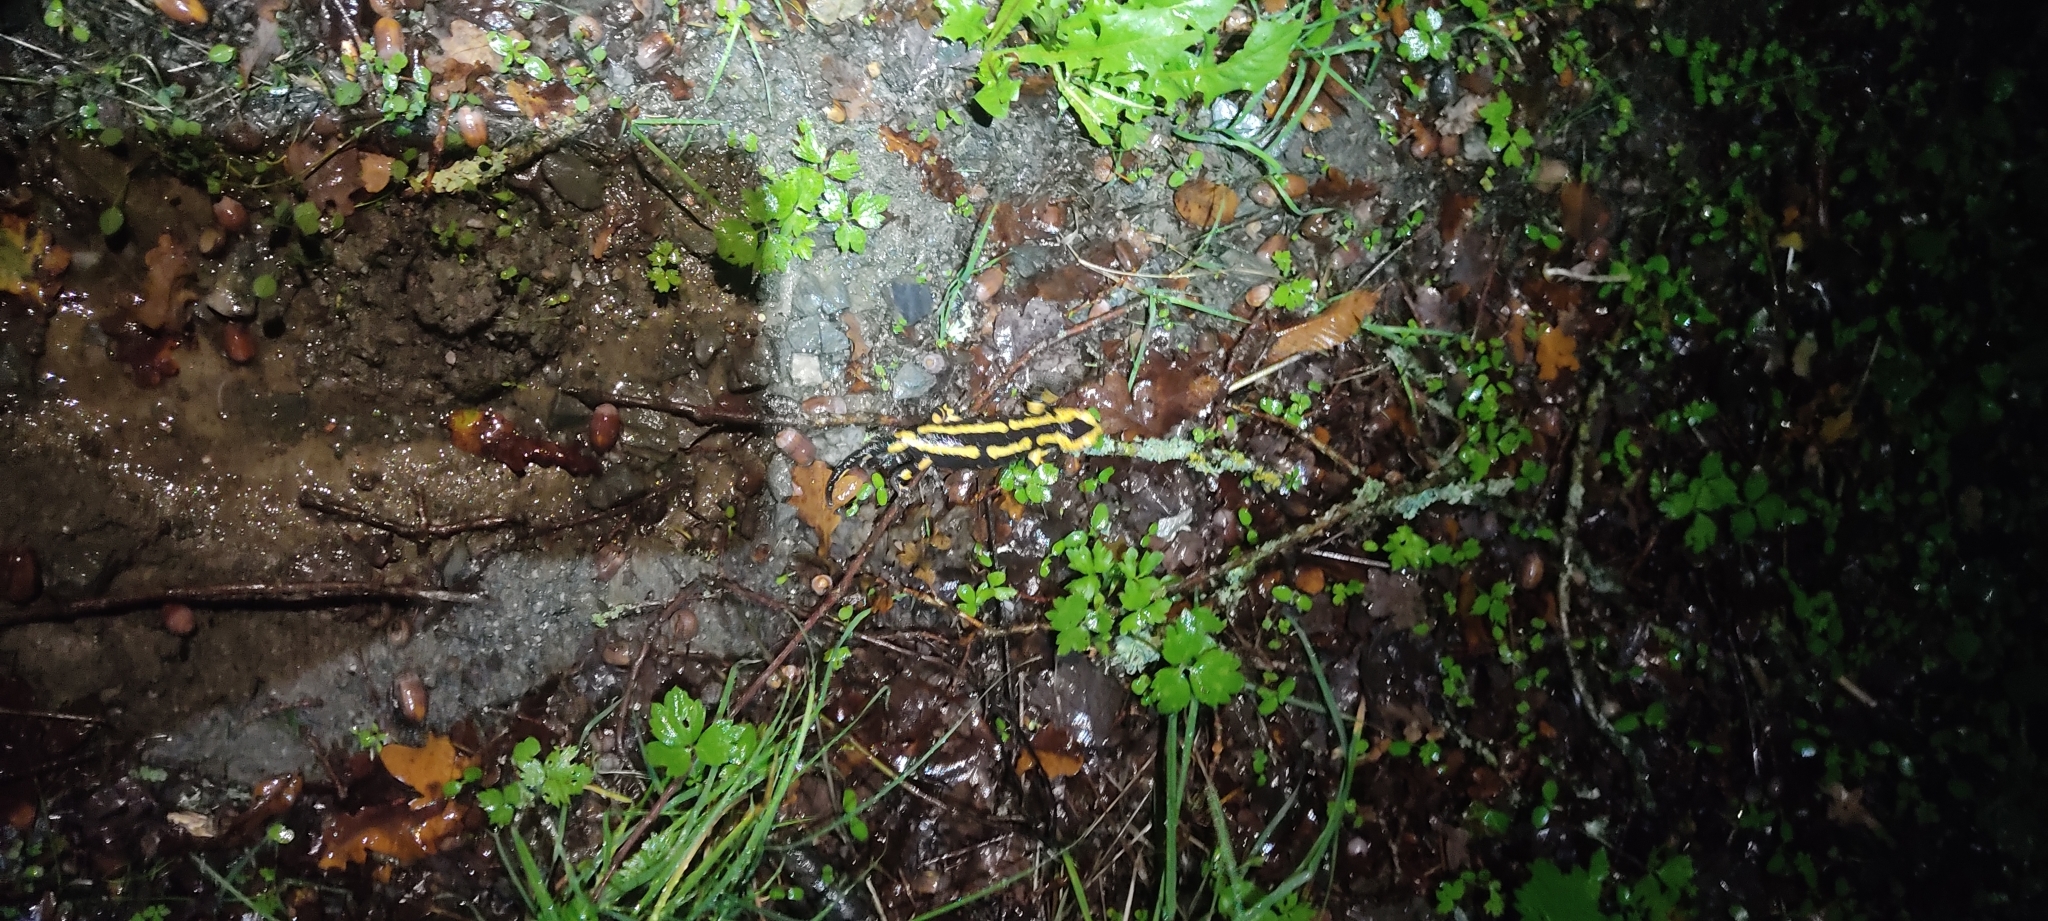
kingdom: Animalia
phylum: Chordata
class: Amphibia
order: Caudata
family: Salamandridae
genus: Salamandra
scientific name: Salamandra salamandra
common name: Fire salamander
